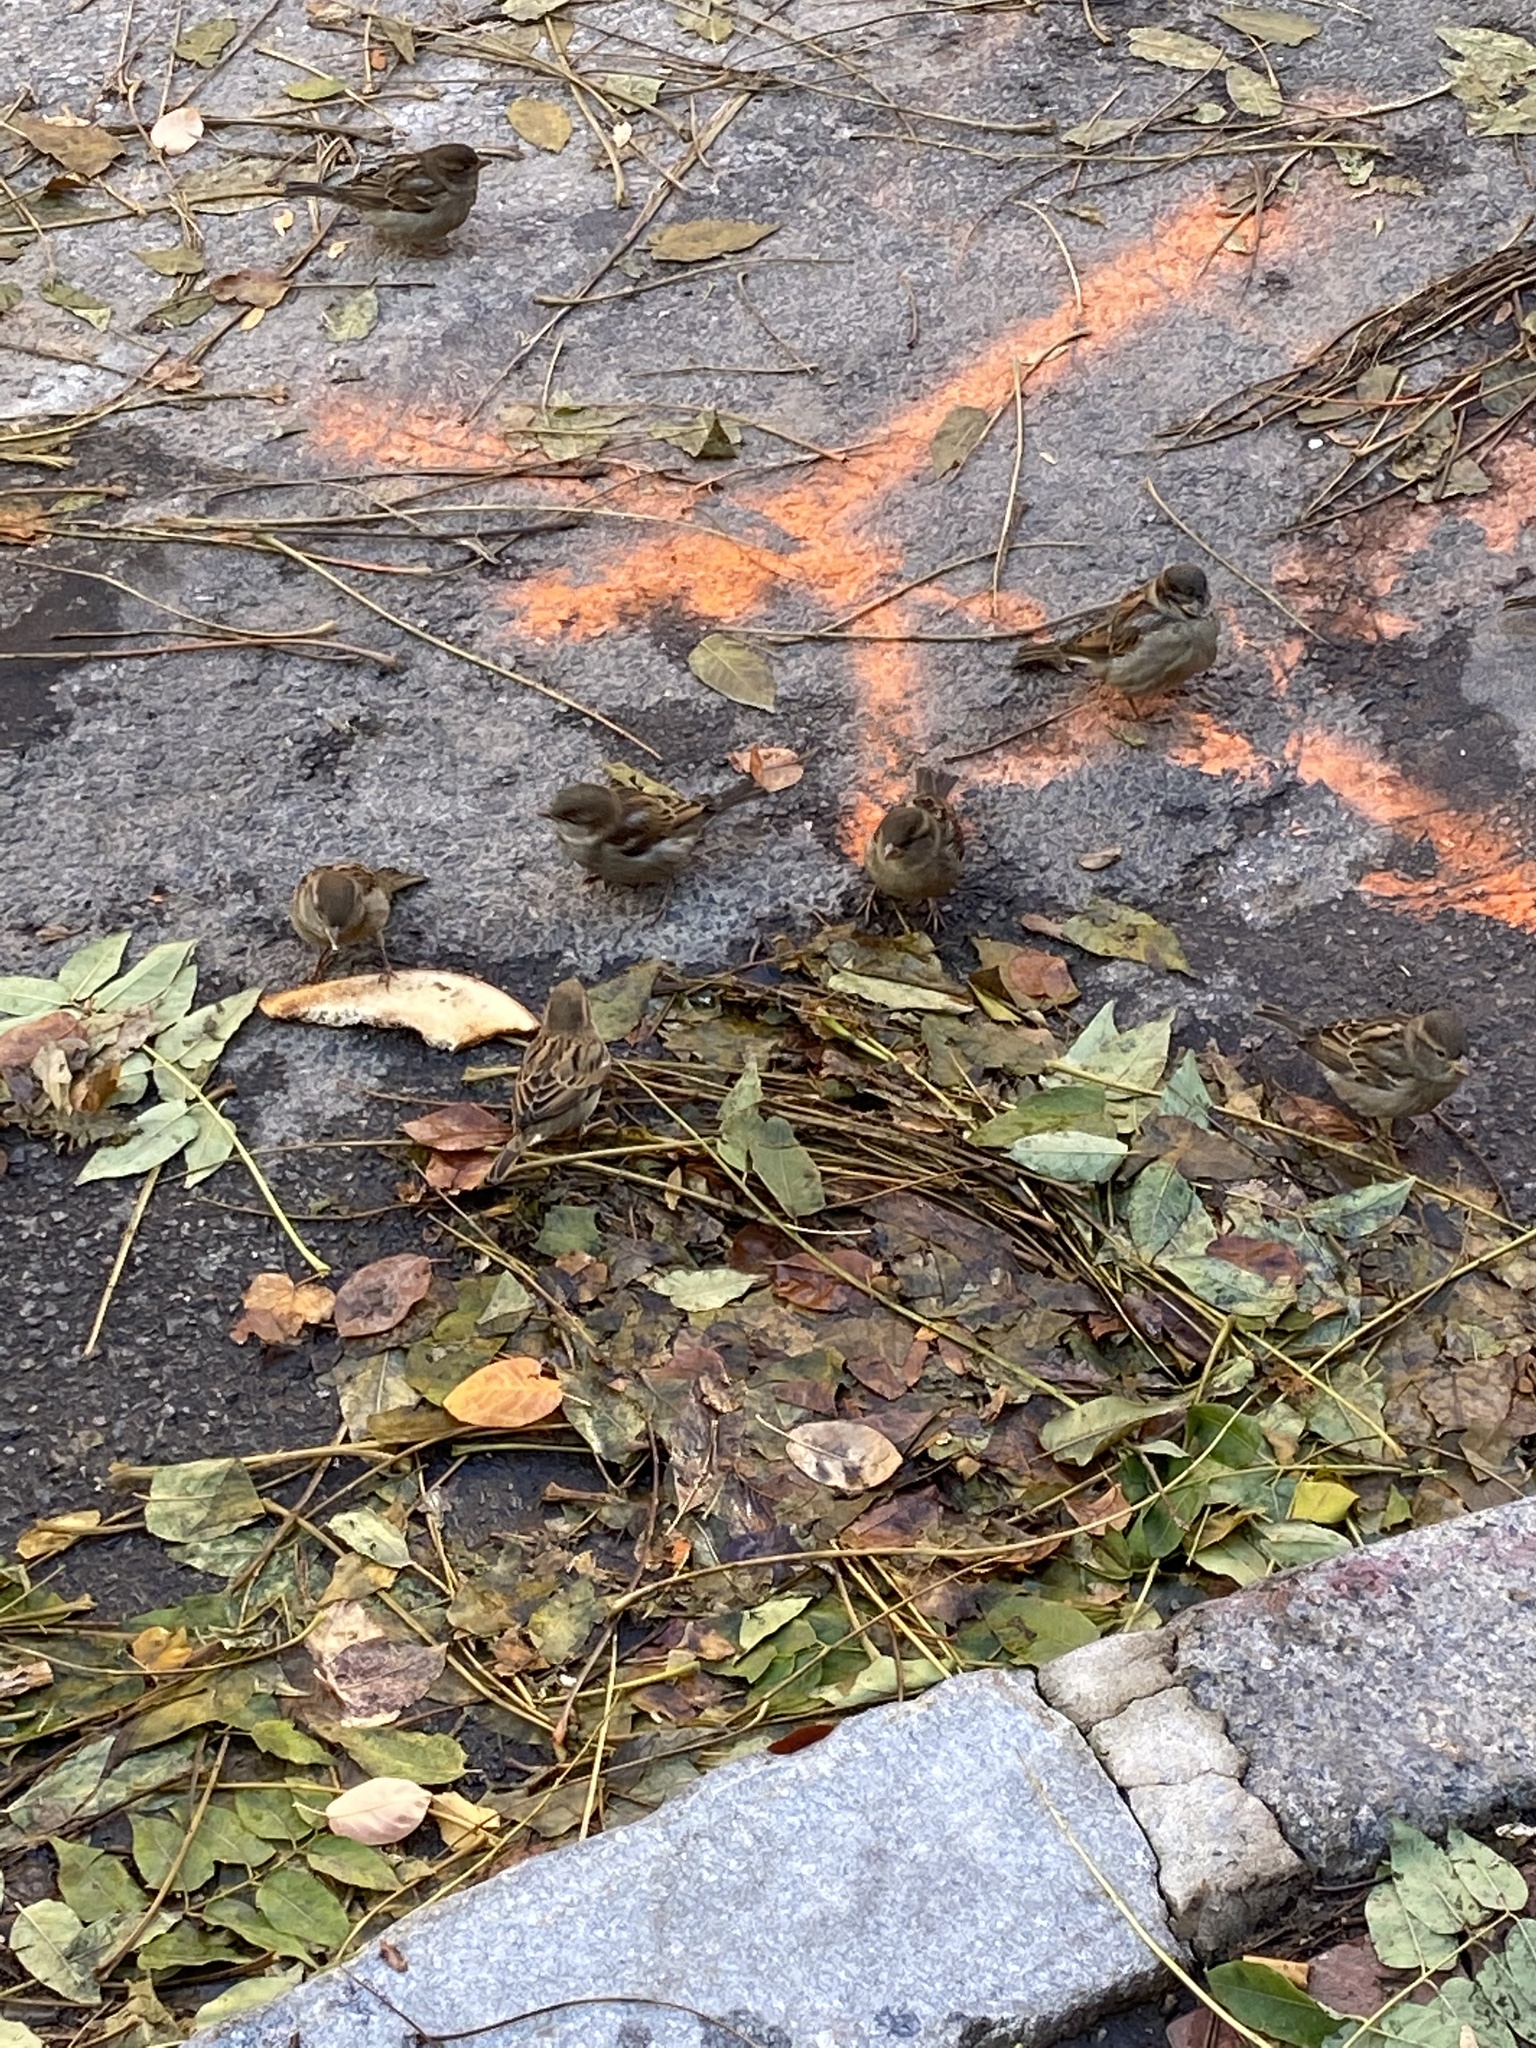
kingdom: Animalia
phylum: Chordata
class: Aves
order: Passeriformes
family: Passeridae
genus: Passer
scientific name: Passer domesticus
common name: House sparrow
